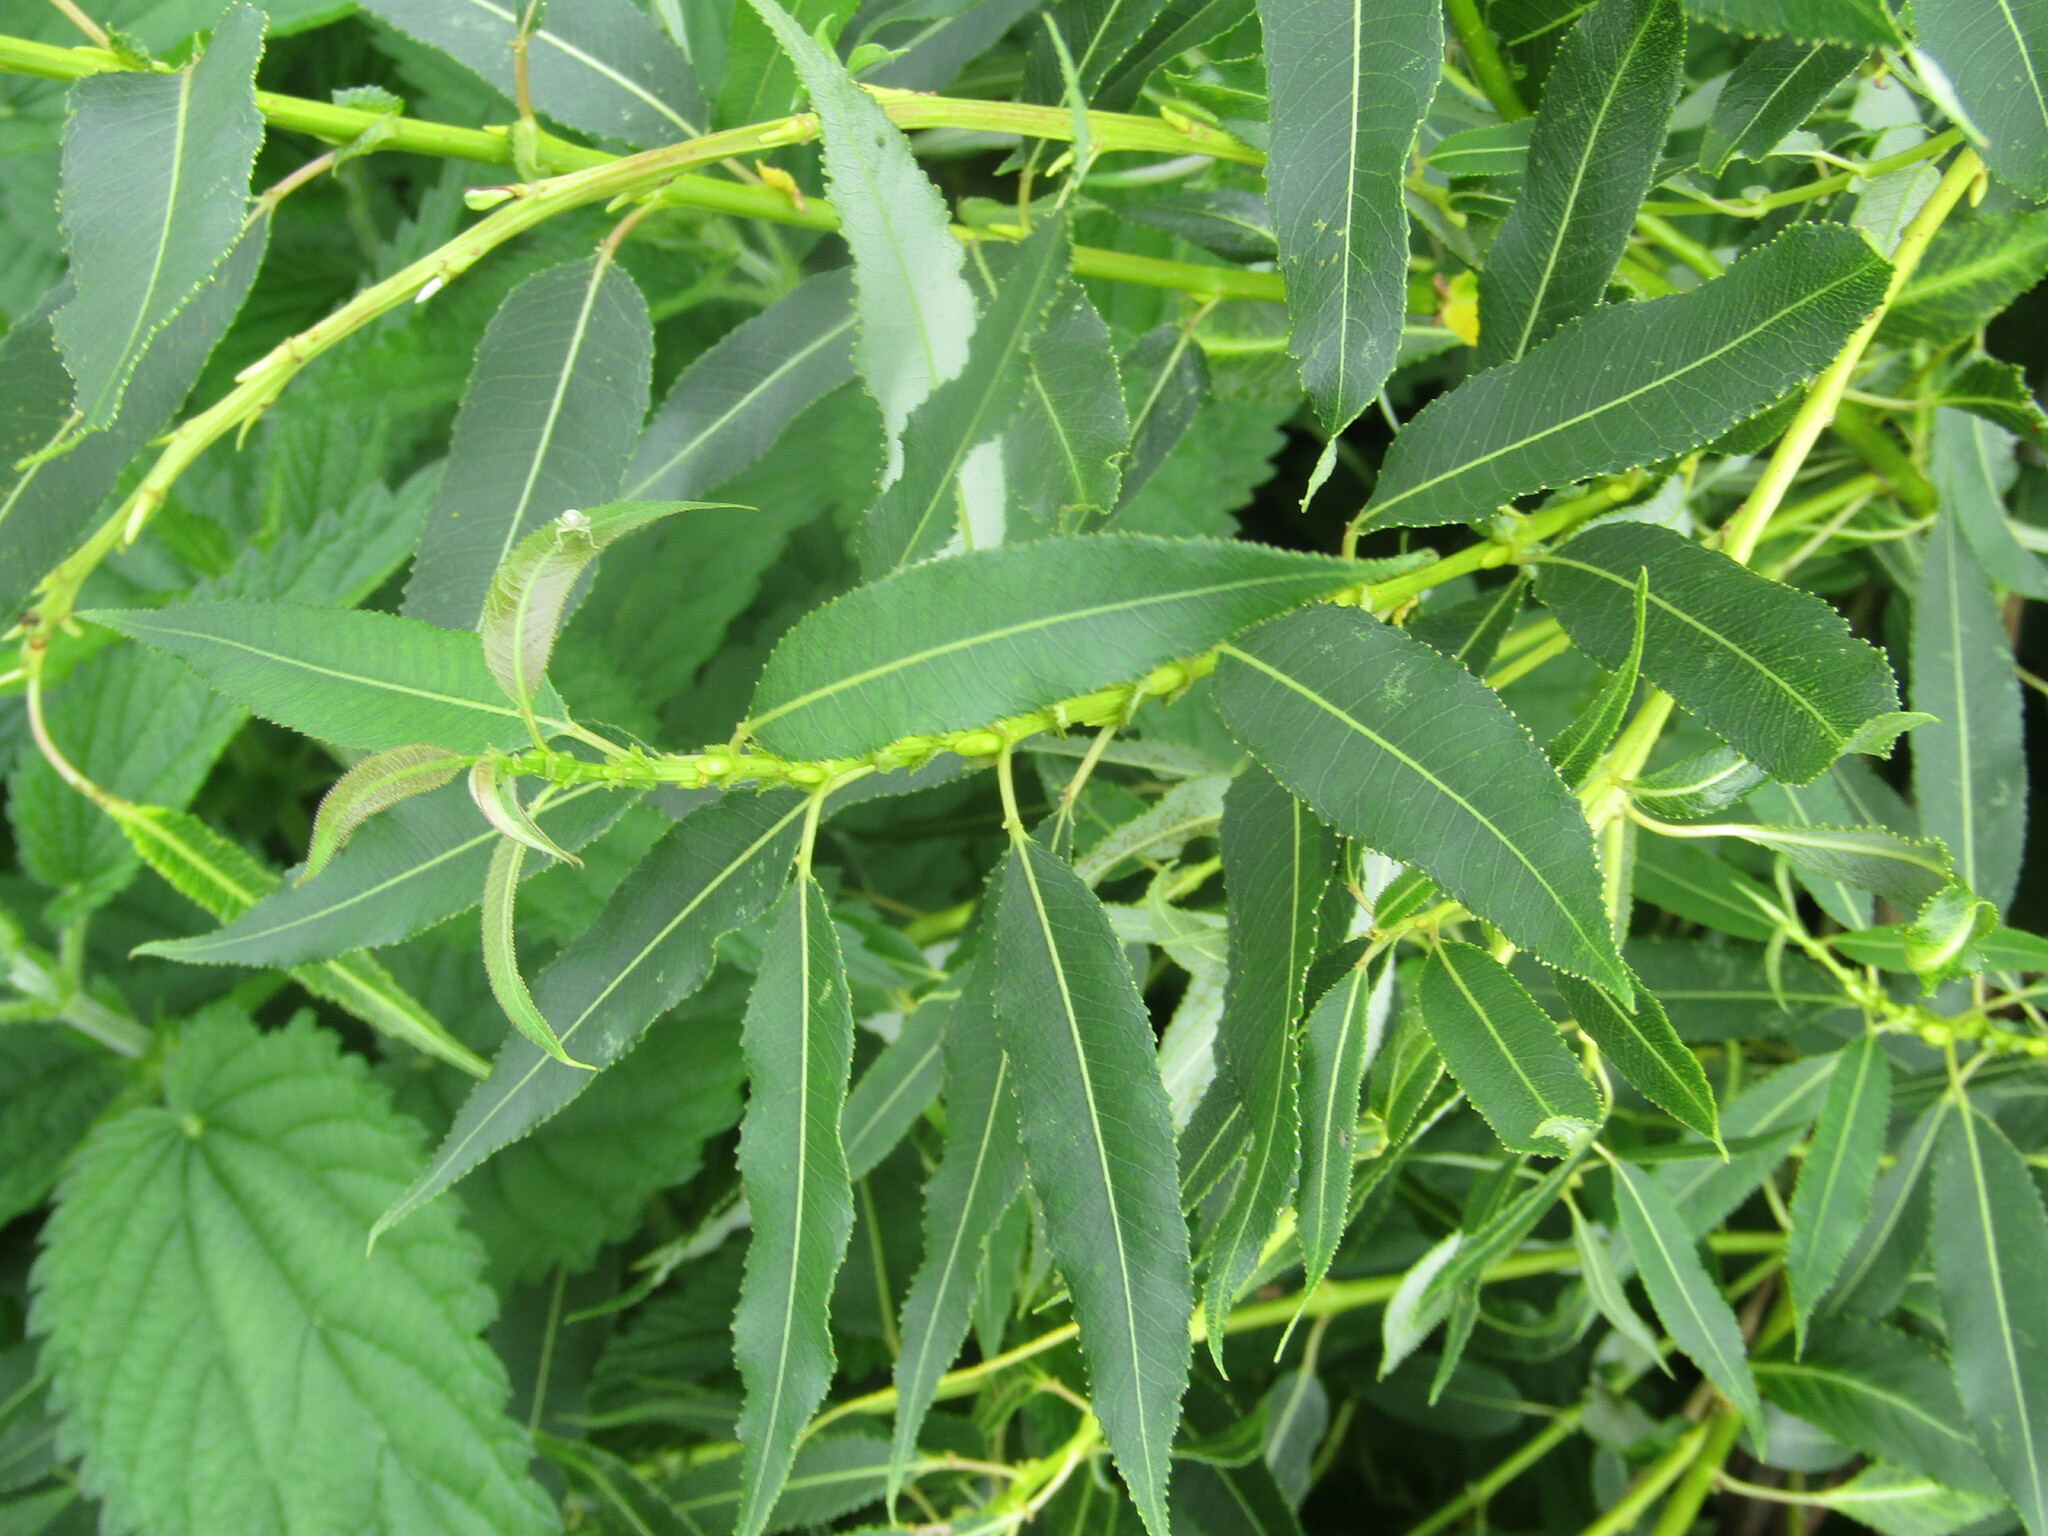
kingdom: Plantae
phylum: Tracheophyta
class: Magnoliopsida
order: Malpighiales
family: Salicaceae
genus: Salix
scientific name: Salix triandra
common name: Almond willow
